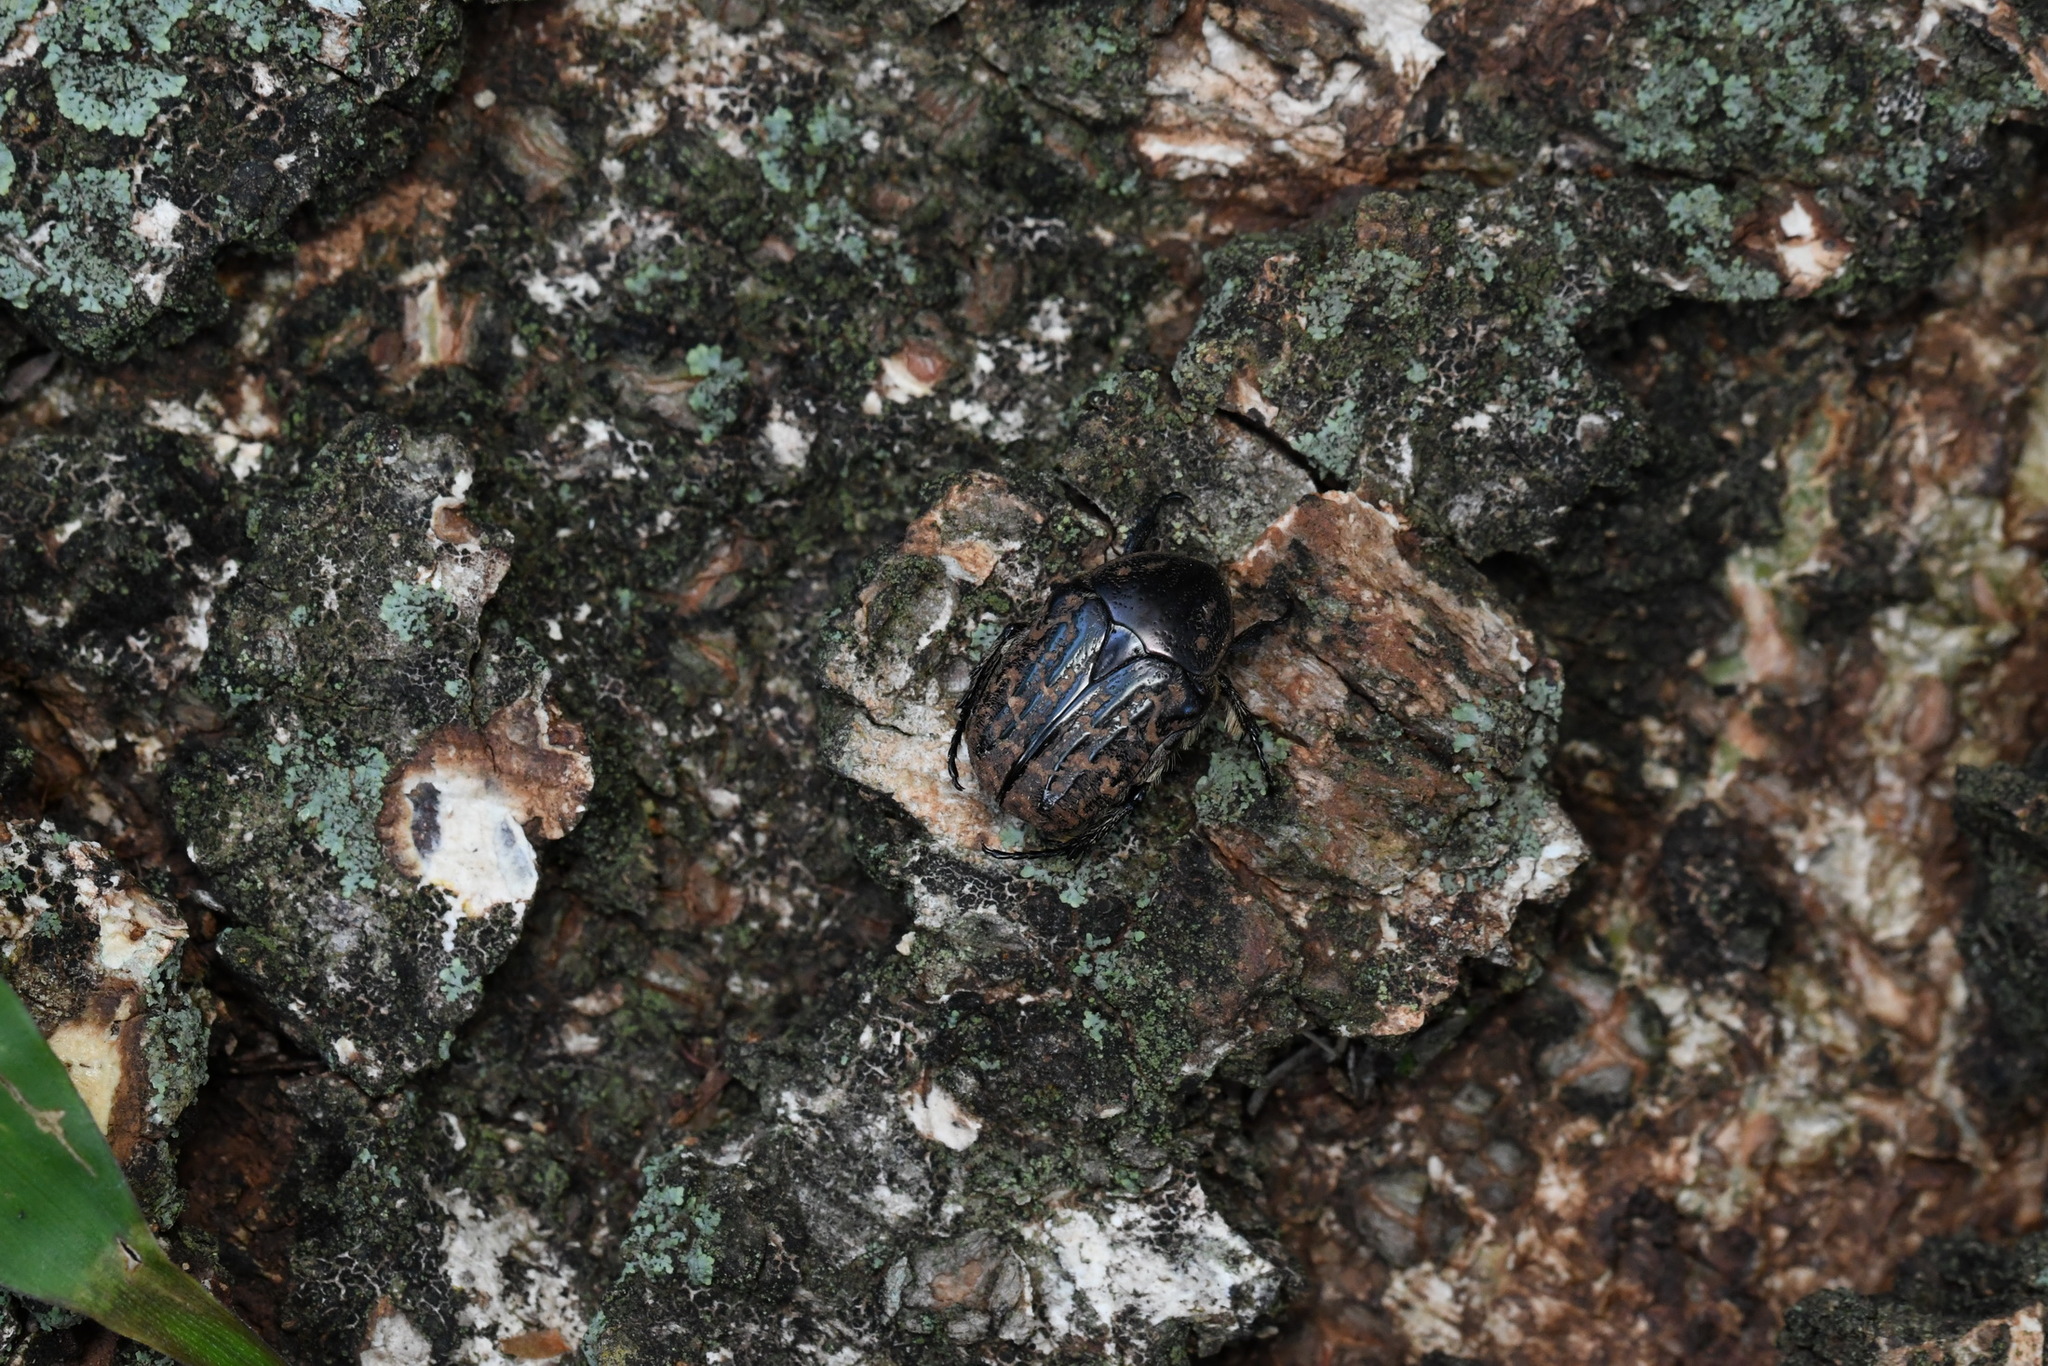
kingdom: Animalia
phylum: Arthropoda
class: Insecta
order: Coleoptera
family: Scarabaeidae
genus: Euphoria
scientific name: Euphoria lurida
